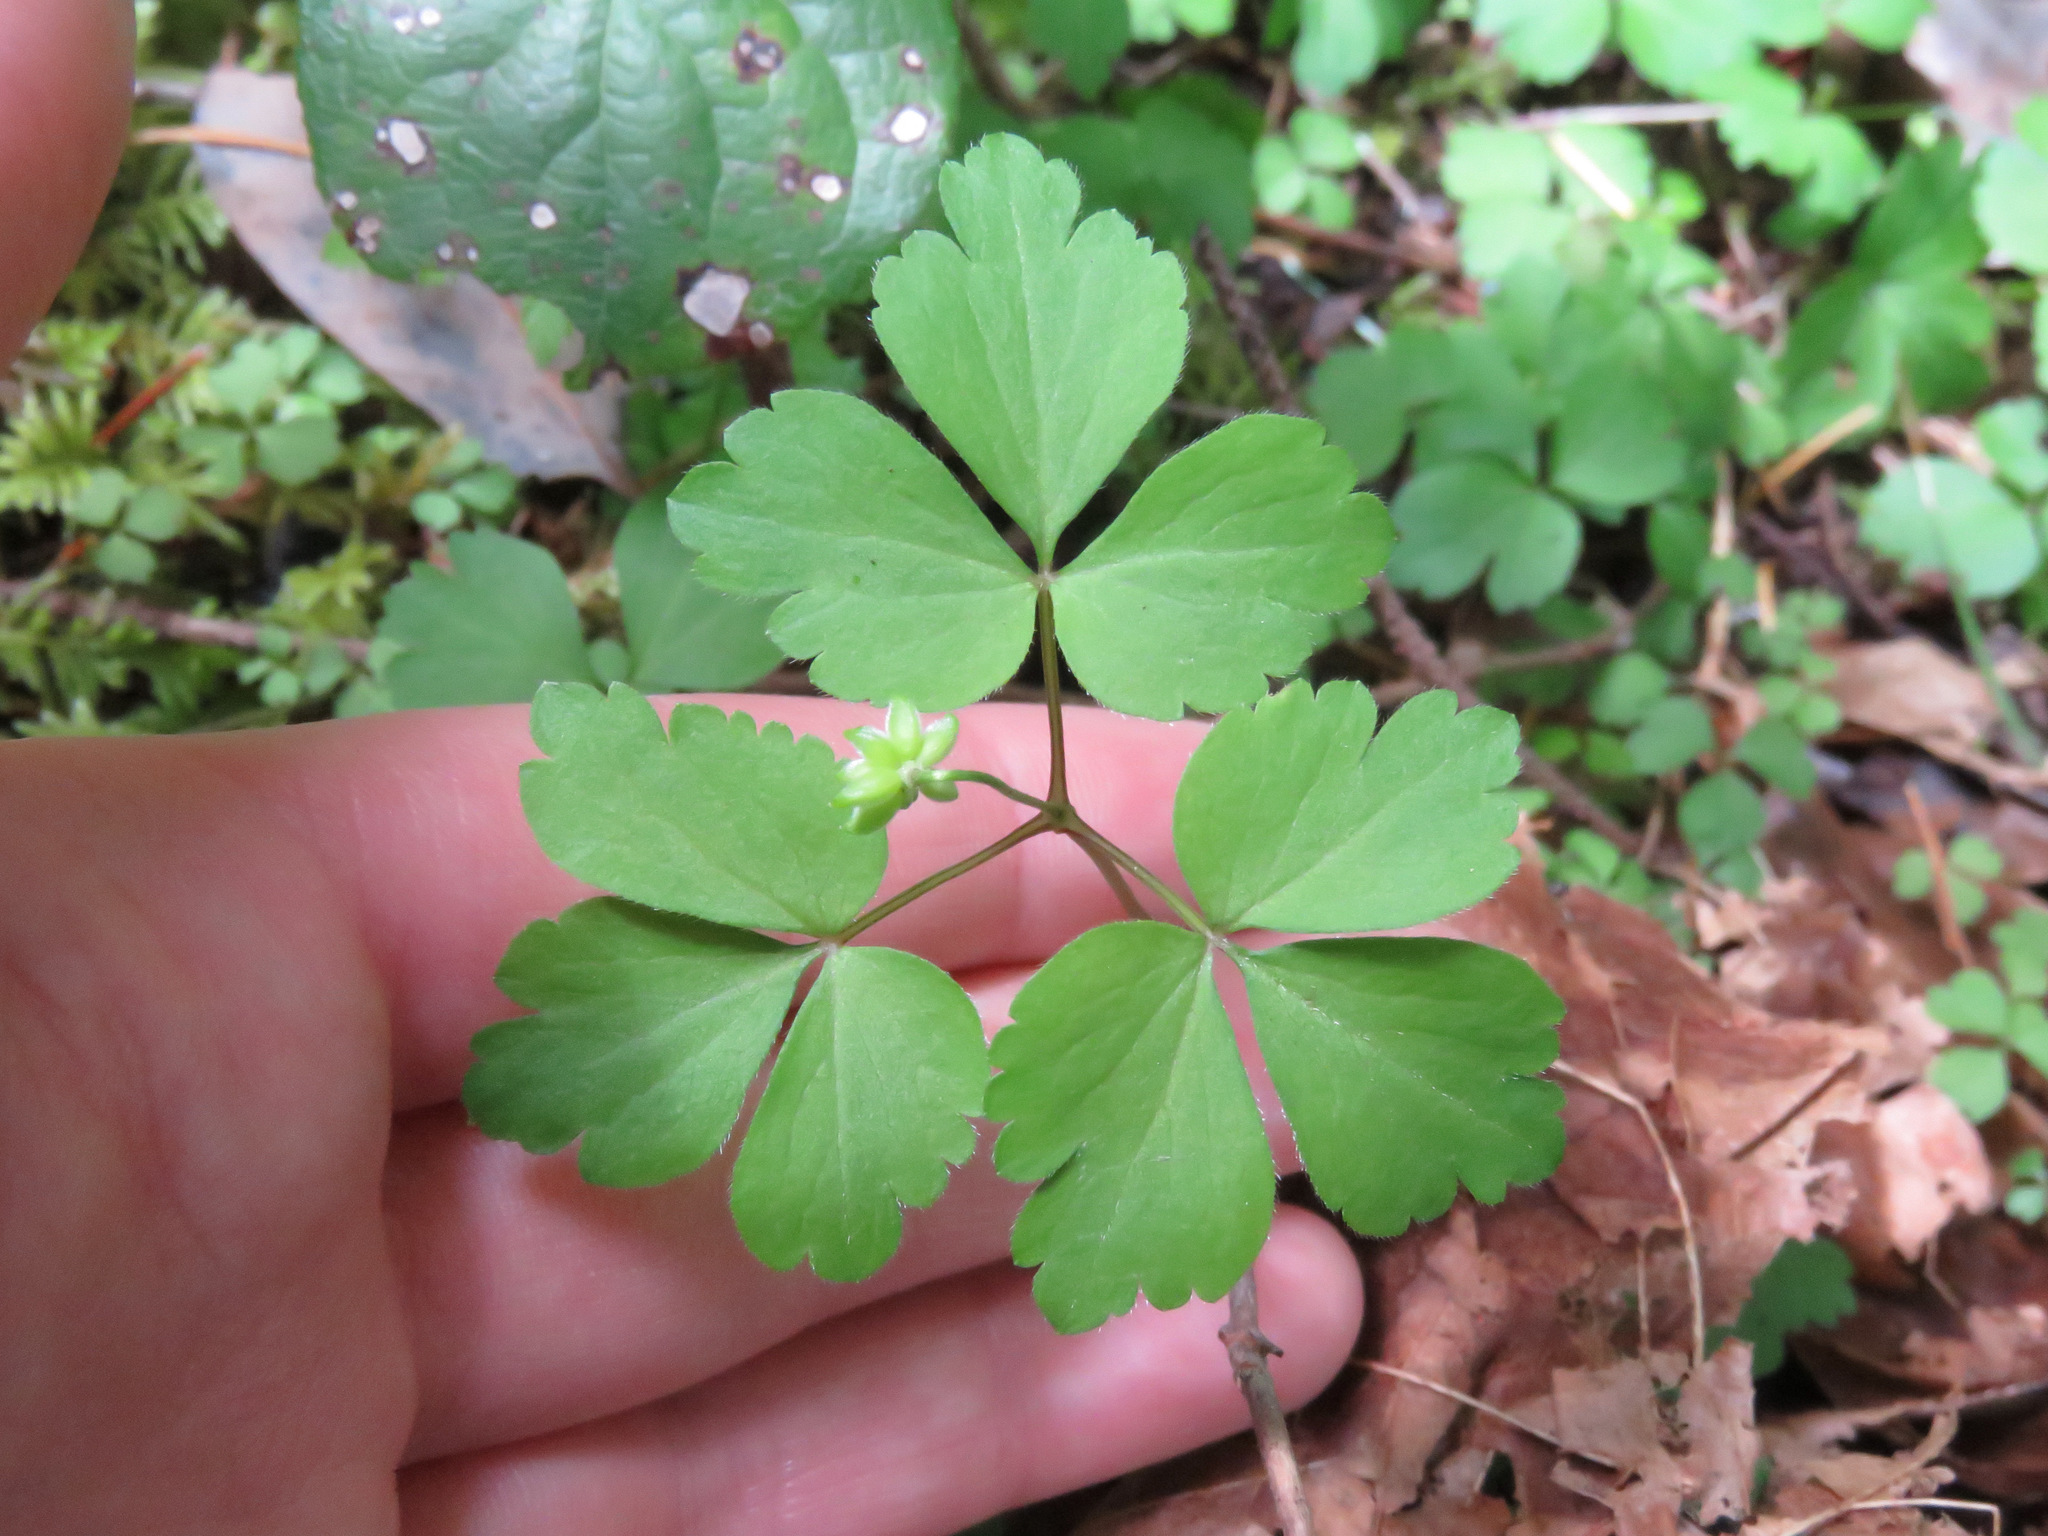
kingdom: Plantae
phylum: Tracheophyta
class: Magnoliopsida
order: Ranunculales
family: Ranunculaceae
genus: Anemone
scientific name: Anemone
